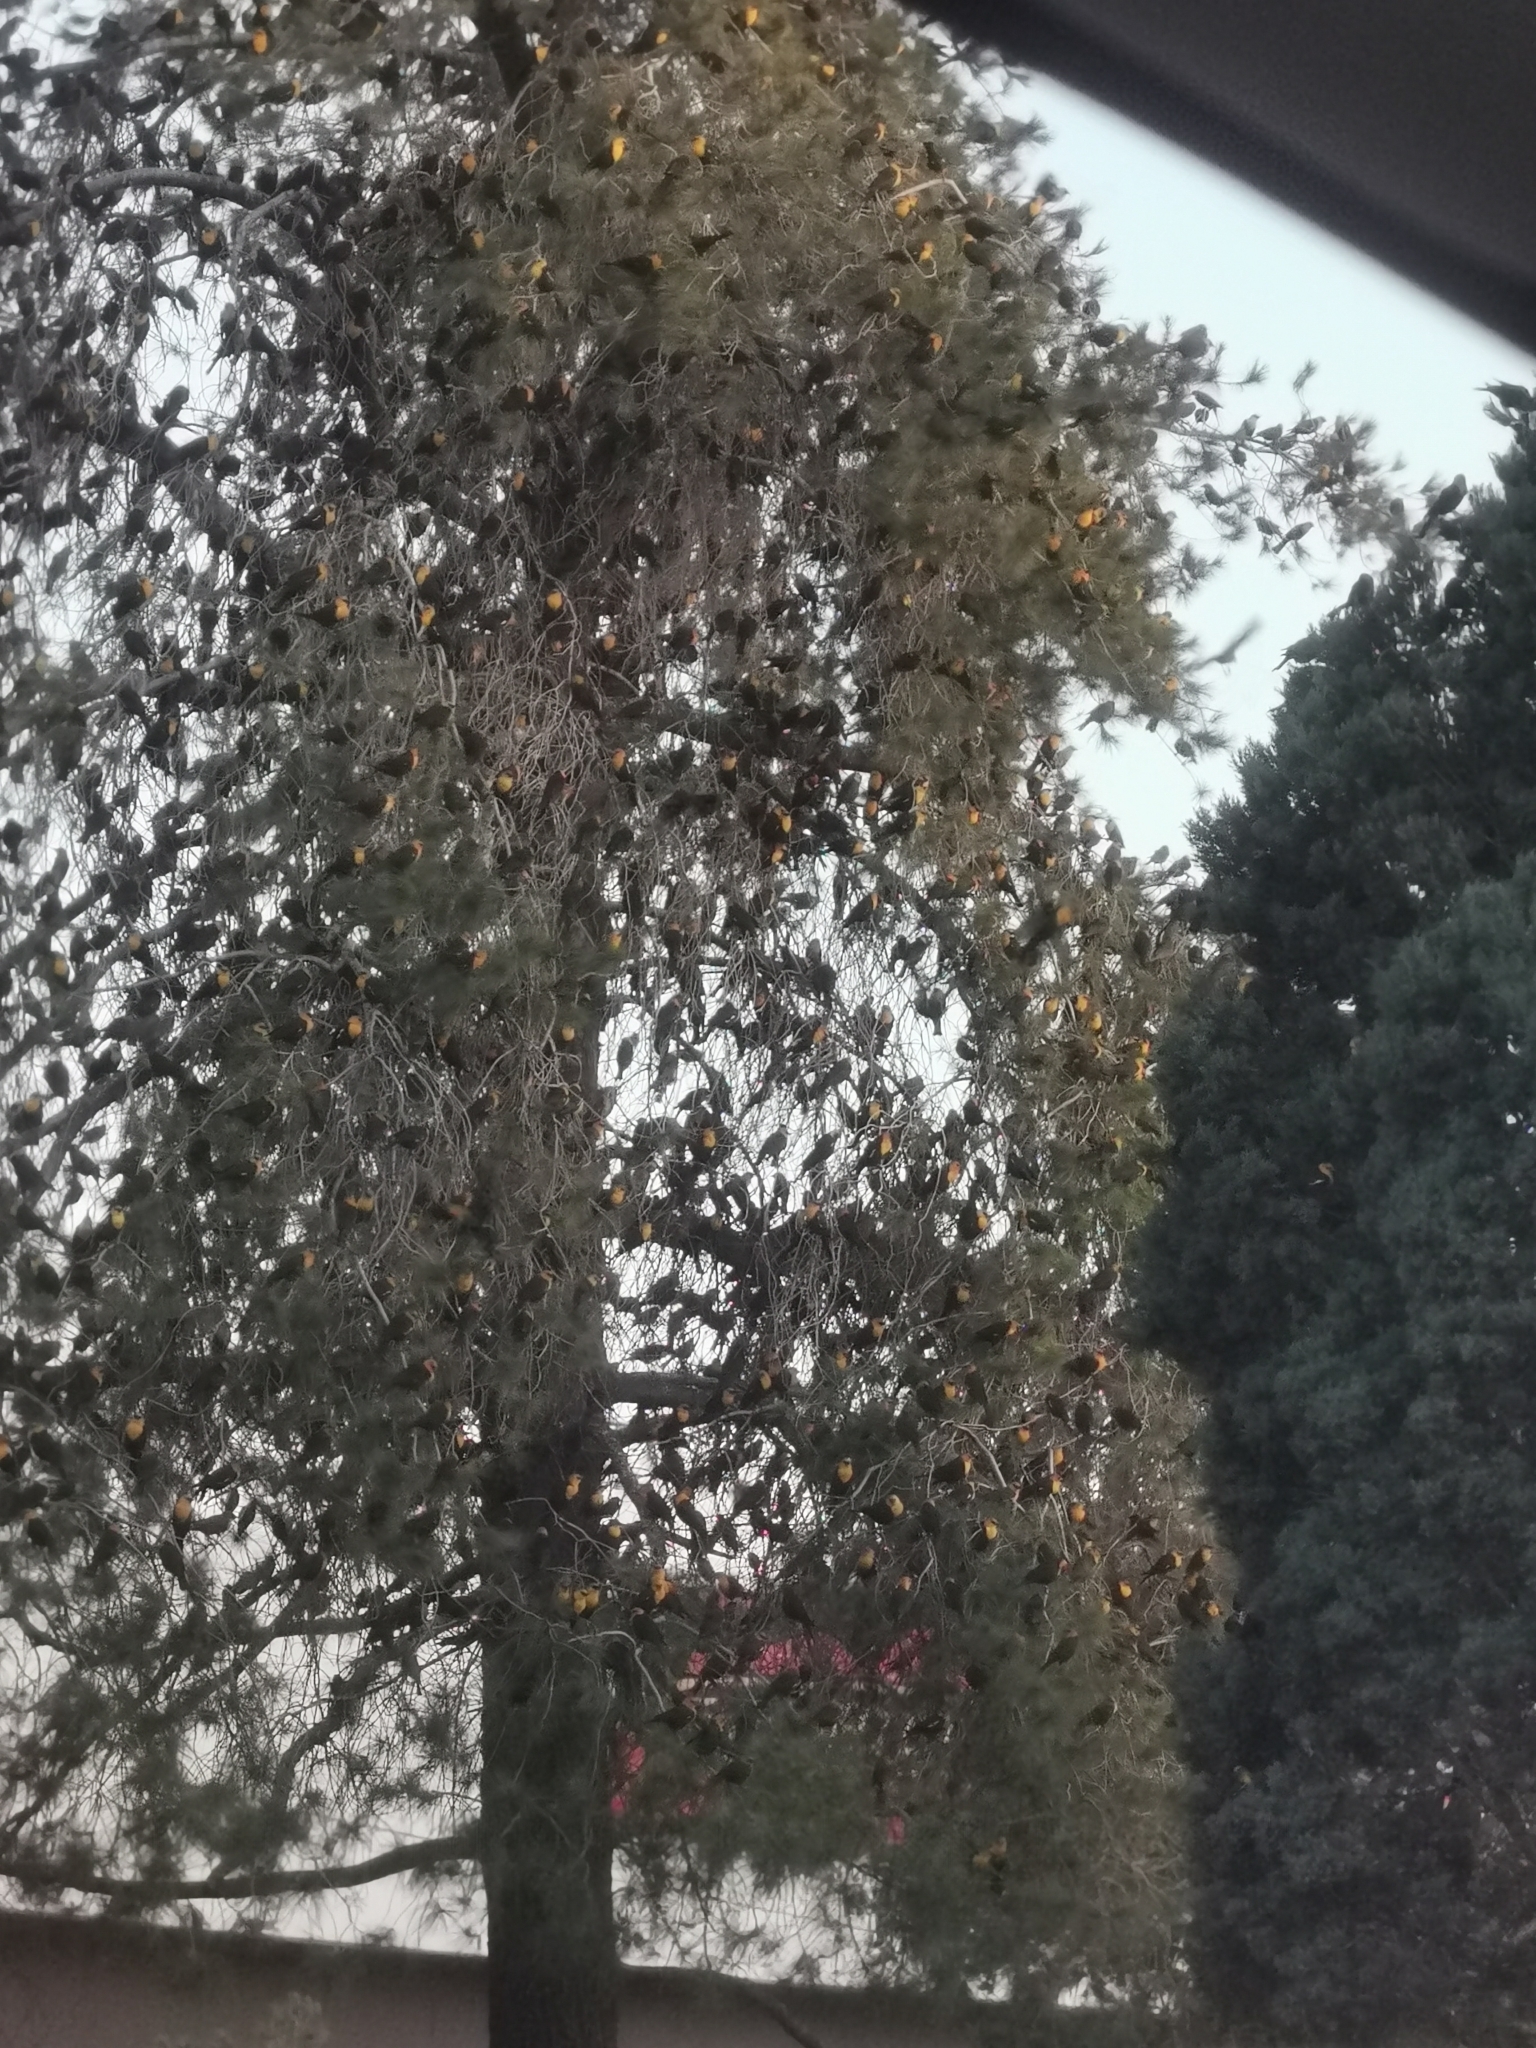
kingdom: Animalia
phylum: Chordata
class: Aves
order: Passeriformes
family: Icteridae
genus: Xanthocephalus
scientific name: Xanthocephalus xanthocephalus
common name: Yellow-headed blackbird
